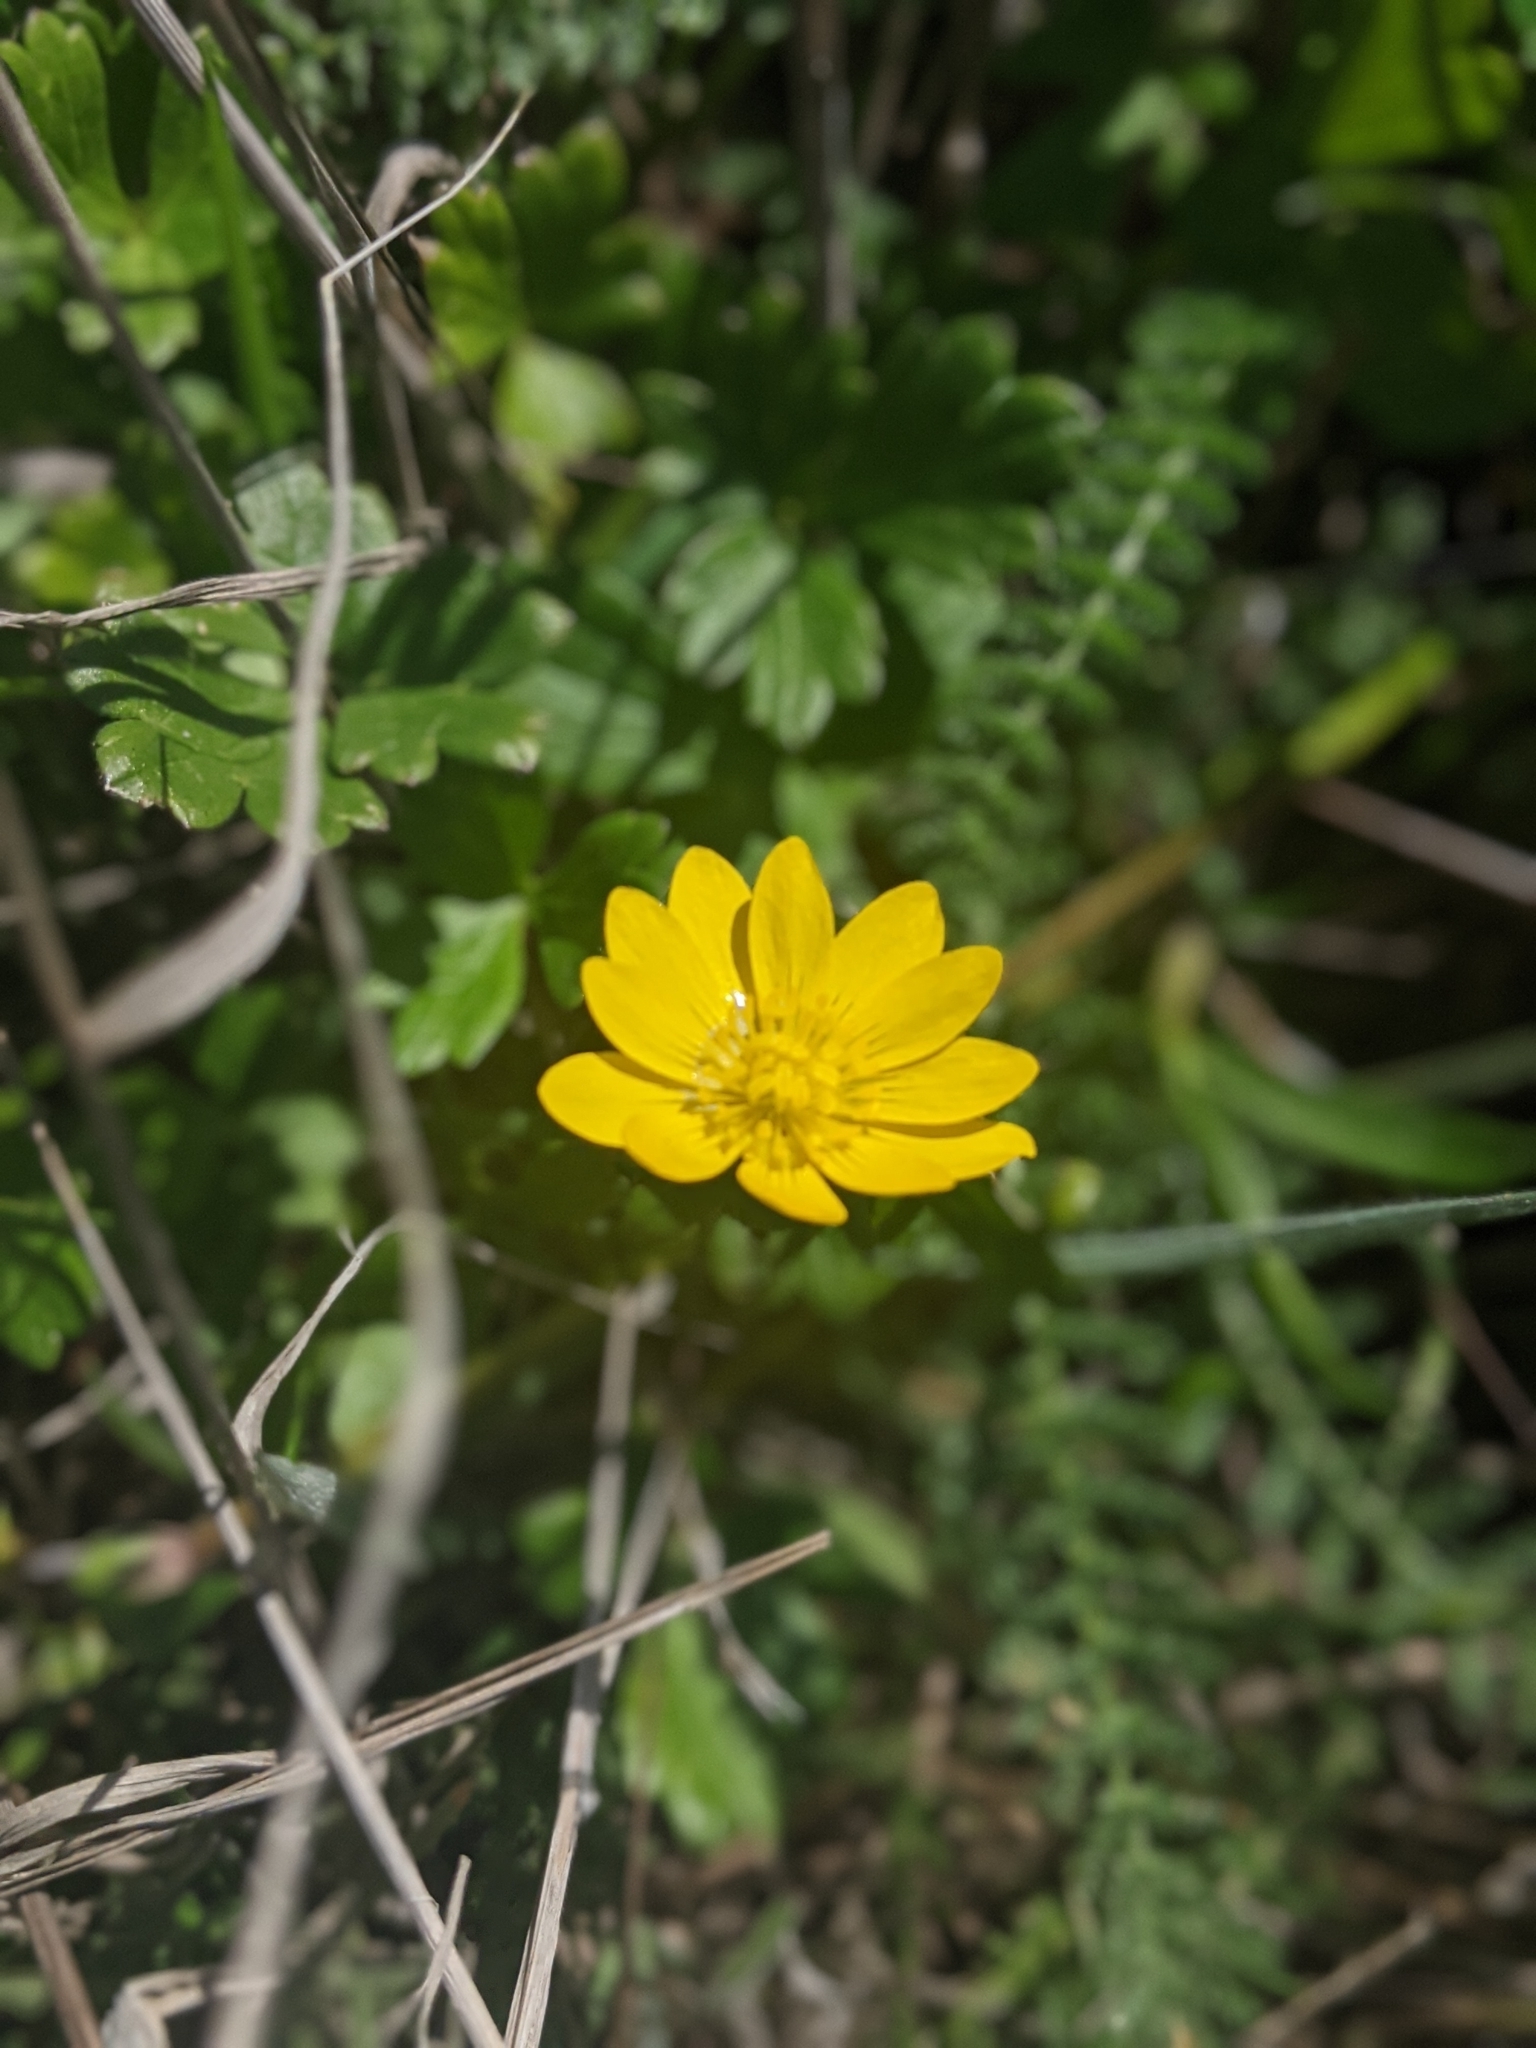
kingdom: Plantae
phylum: Tracheophyta
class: Magnoliopsida
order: Ranunculales
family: Ranunculaceae
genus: Ranunculus
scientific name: Ranunculus californicus
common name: California buttercup
